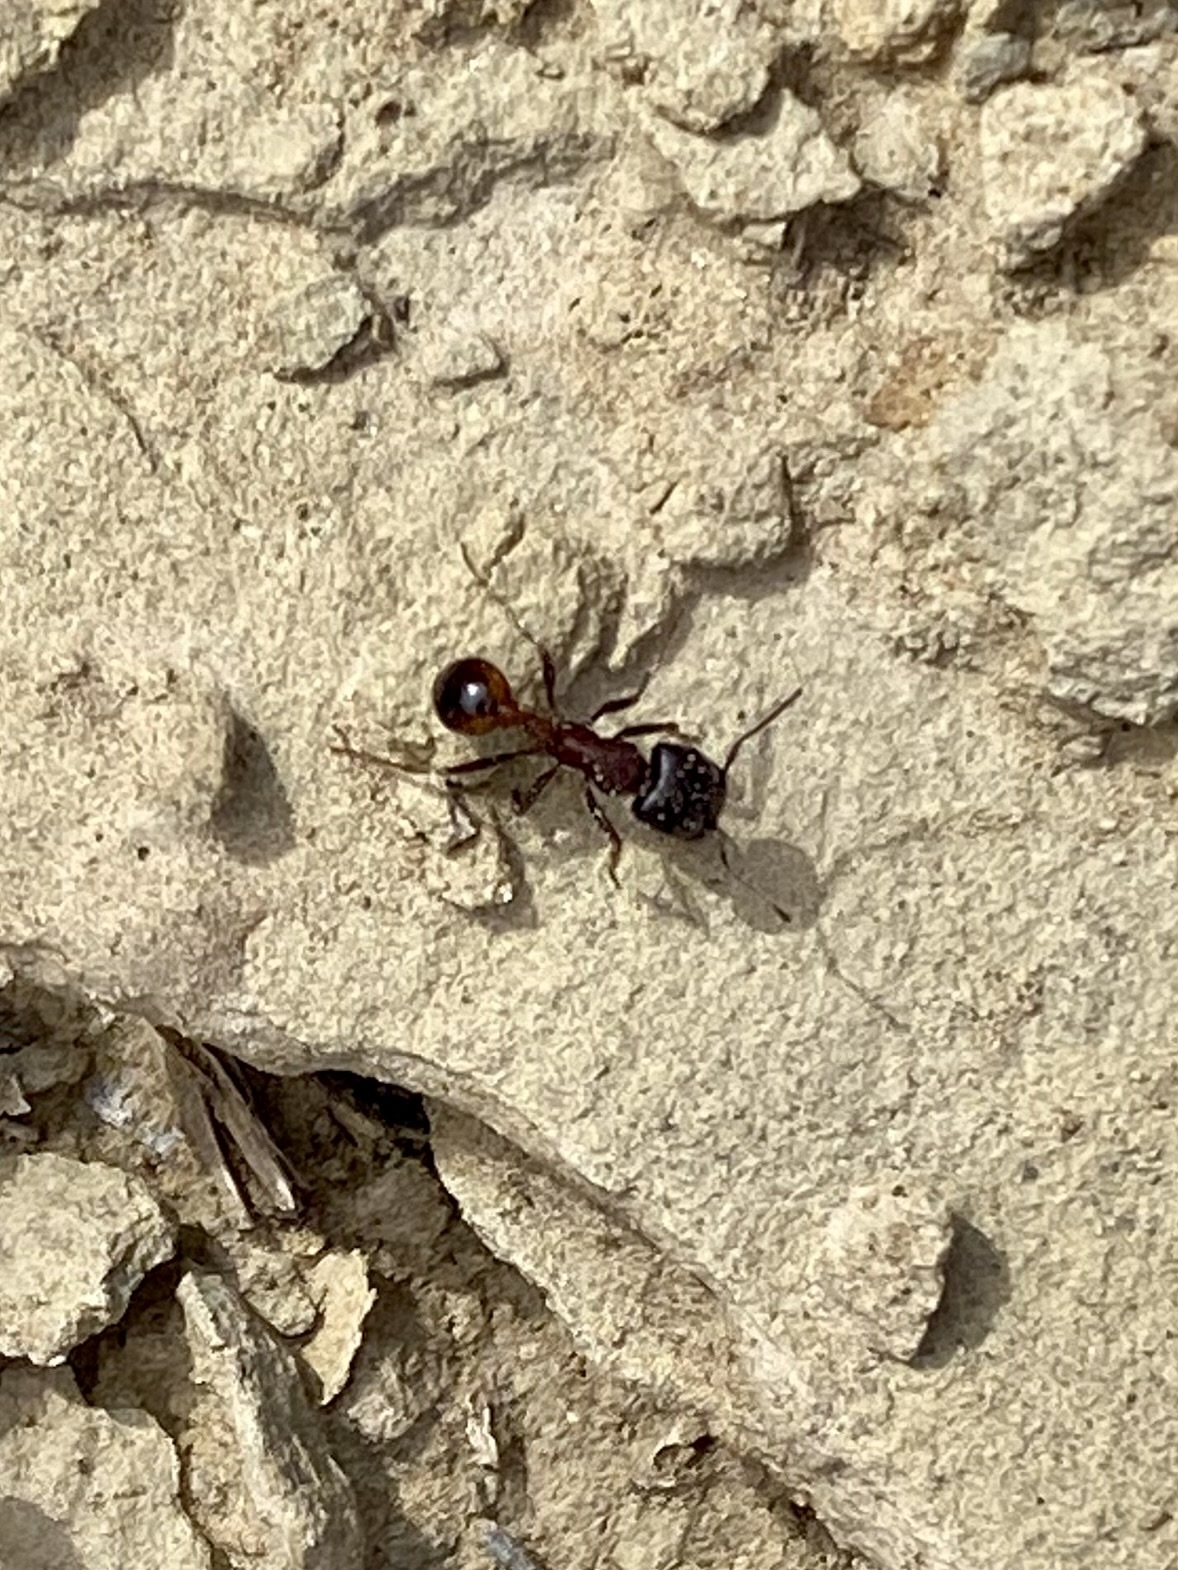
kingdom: Animalia
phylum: Arthropoda
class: Insecta
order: Hymenoptera
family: Formicidae
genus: Pogonomyrmex
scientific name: Pogonomyrmex rugosus
